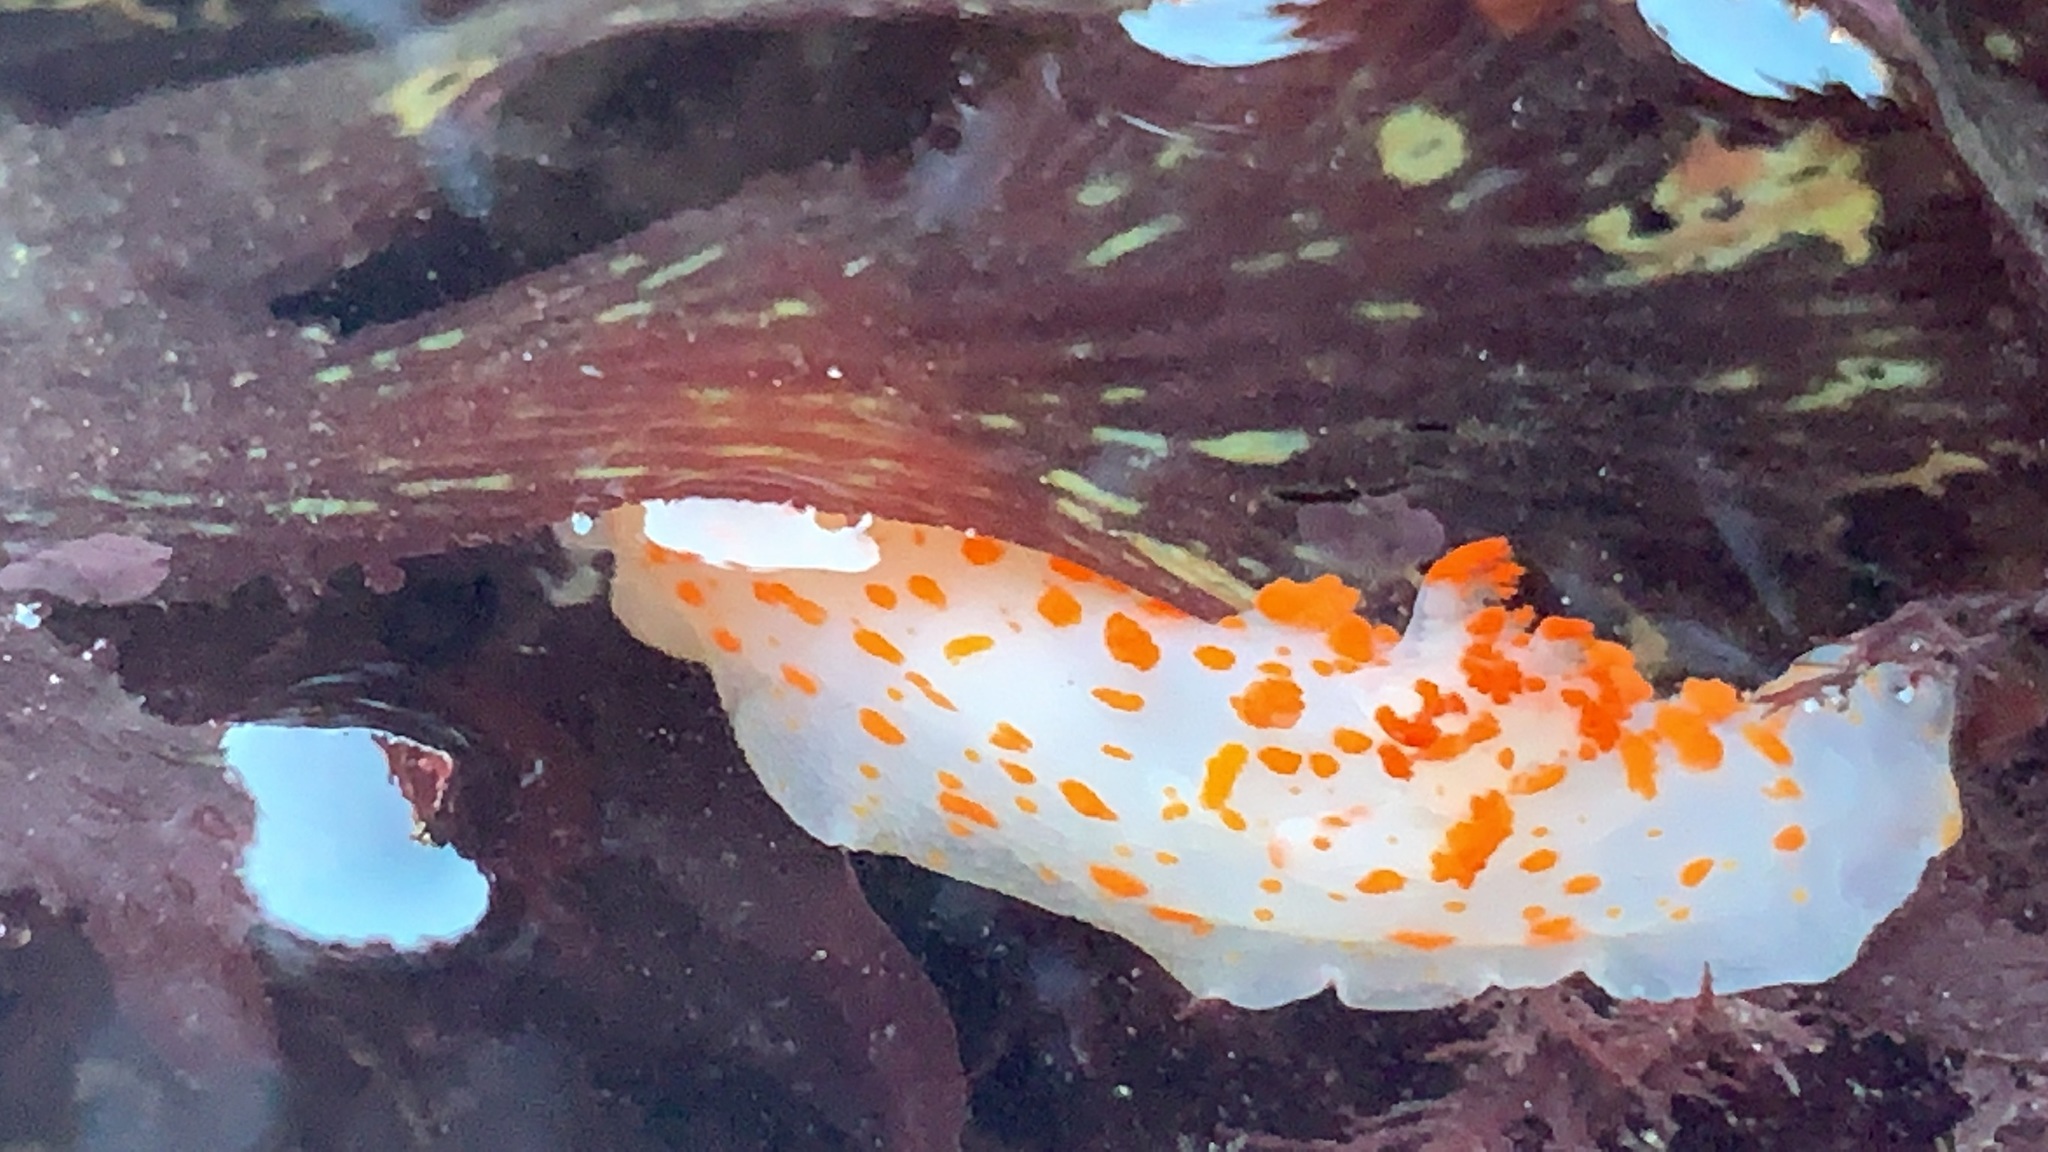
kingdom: Animalia
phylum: Mollusca
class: Gastropoda
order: Nudibranchia
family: Polyceridae
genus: Triopha
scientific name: Triopha catalinae
